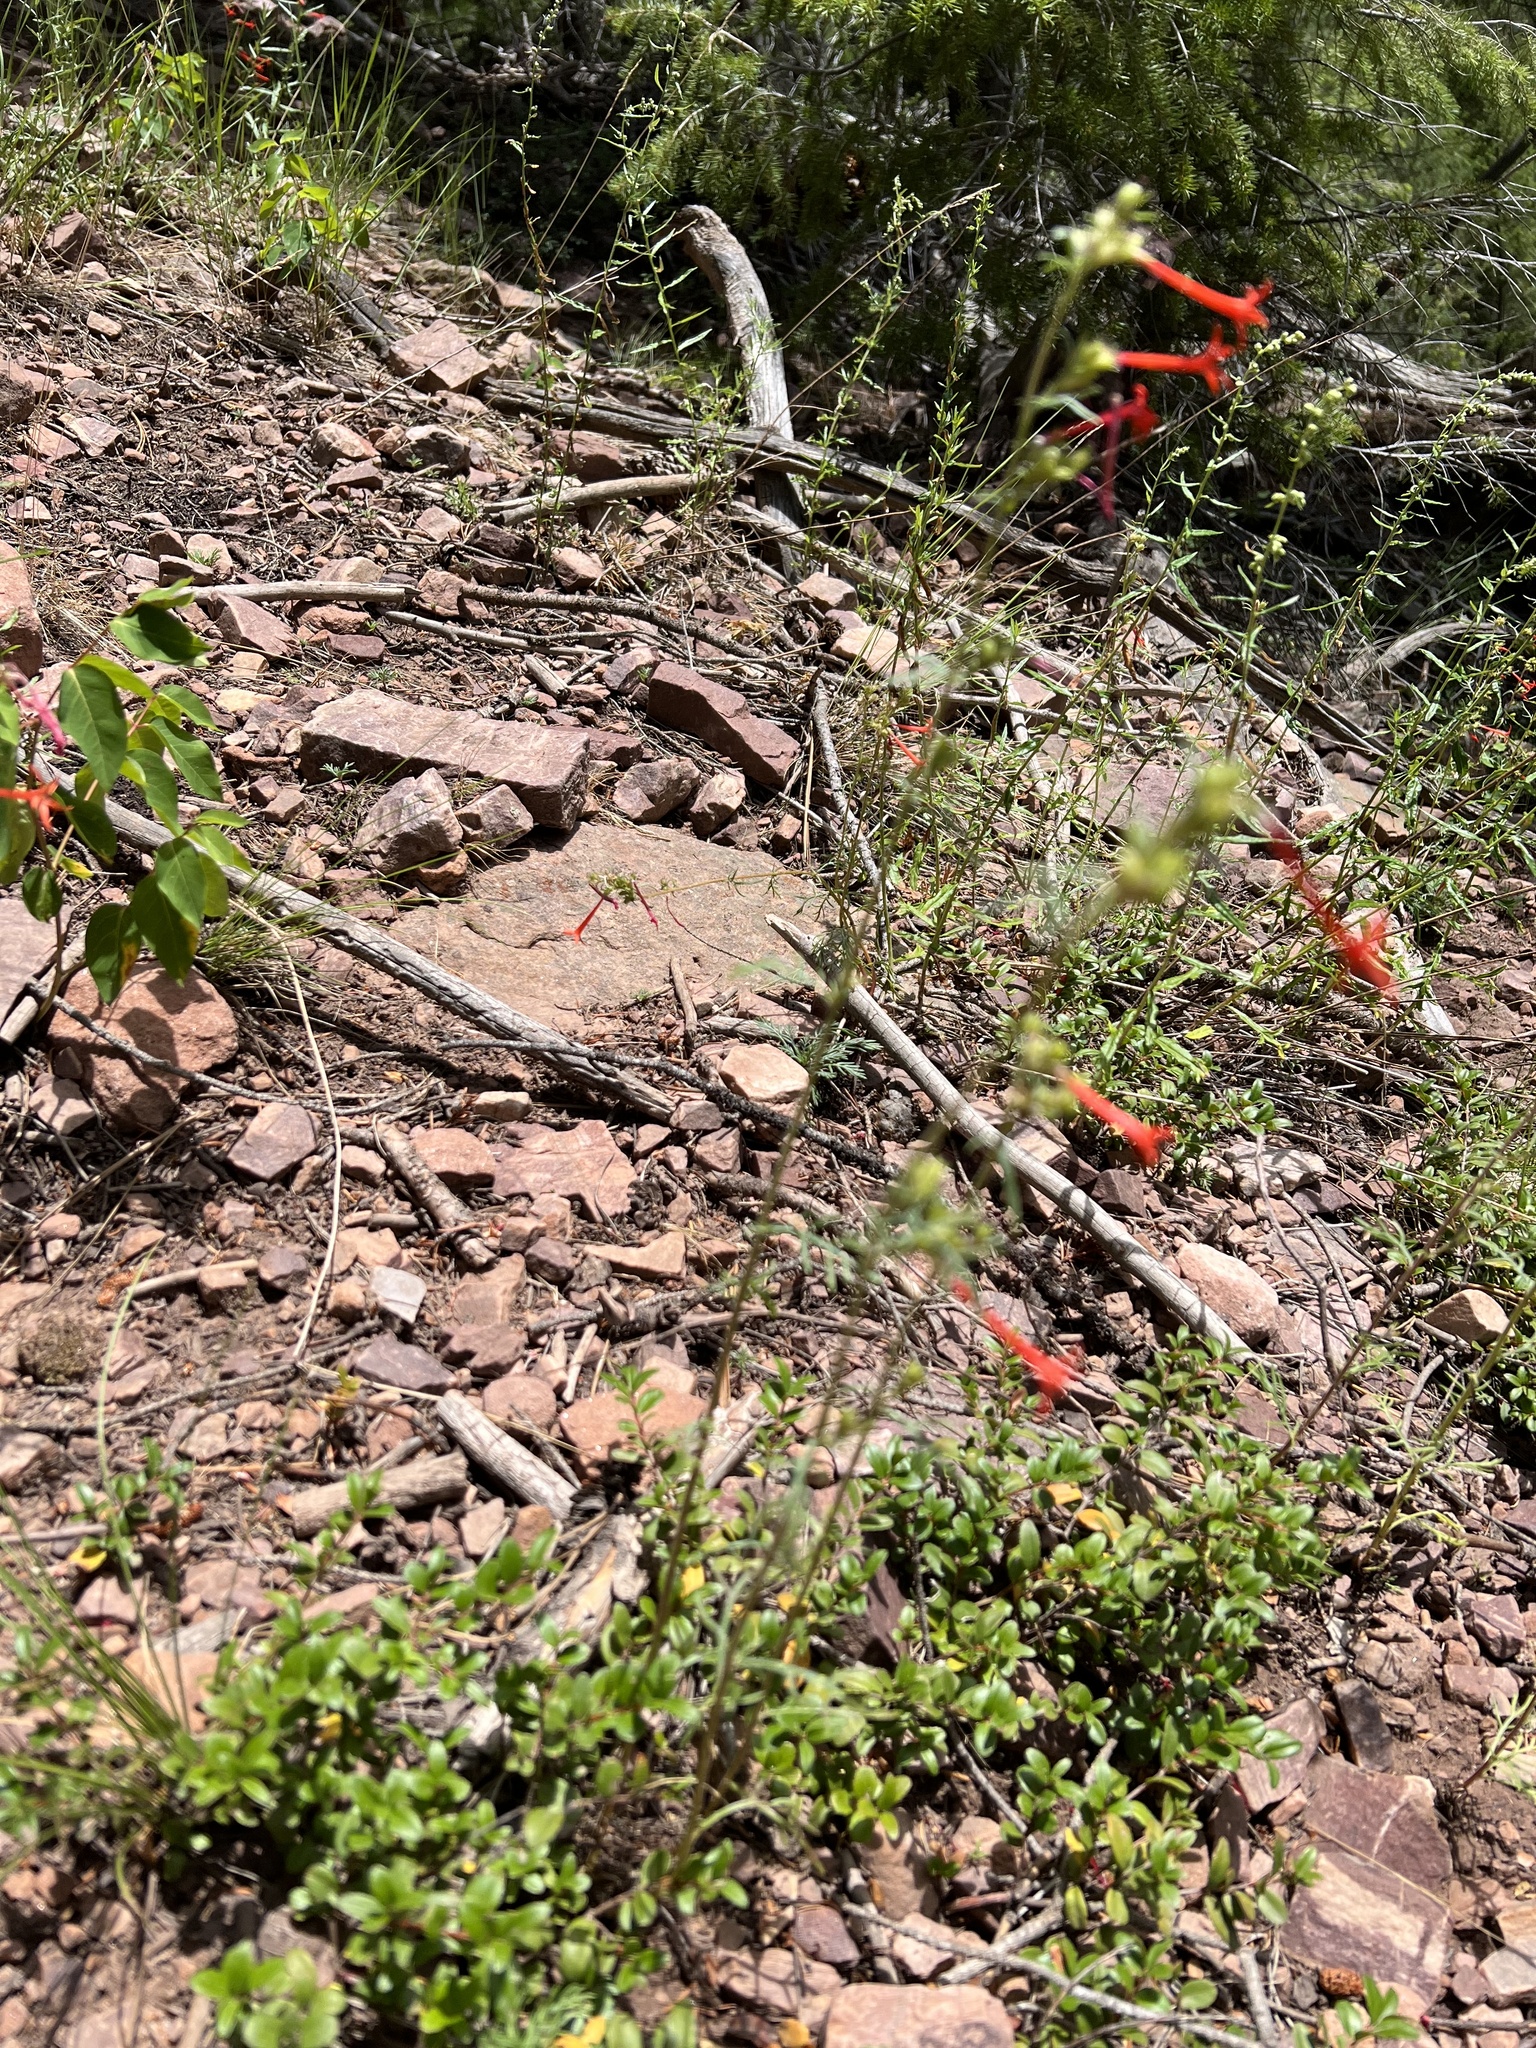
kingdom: Plantae
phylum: Tracheophyta
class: Magnoliopsida
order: Ericales
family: Polemoniaceae
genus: Ipomopsis
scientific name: Ipomopsis aggregata
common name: Scarlet gilia
